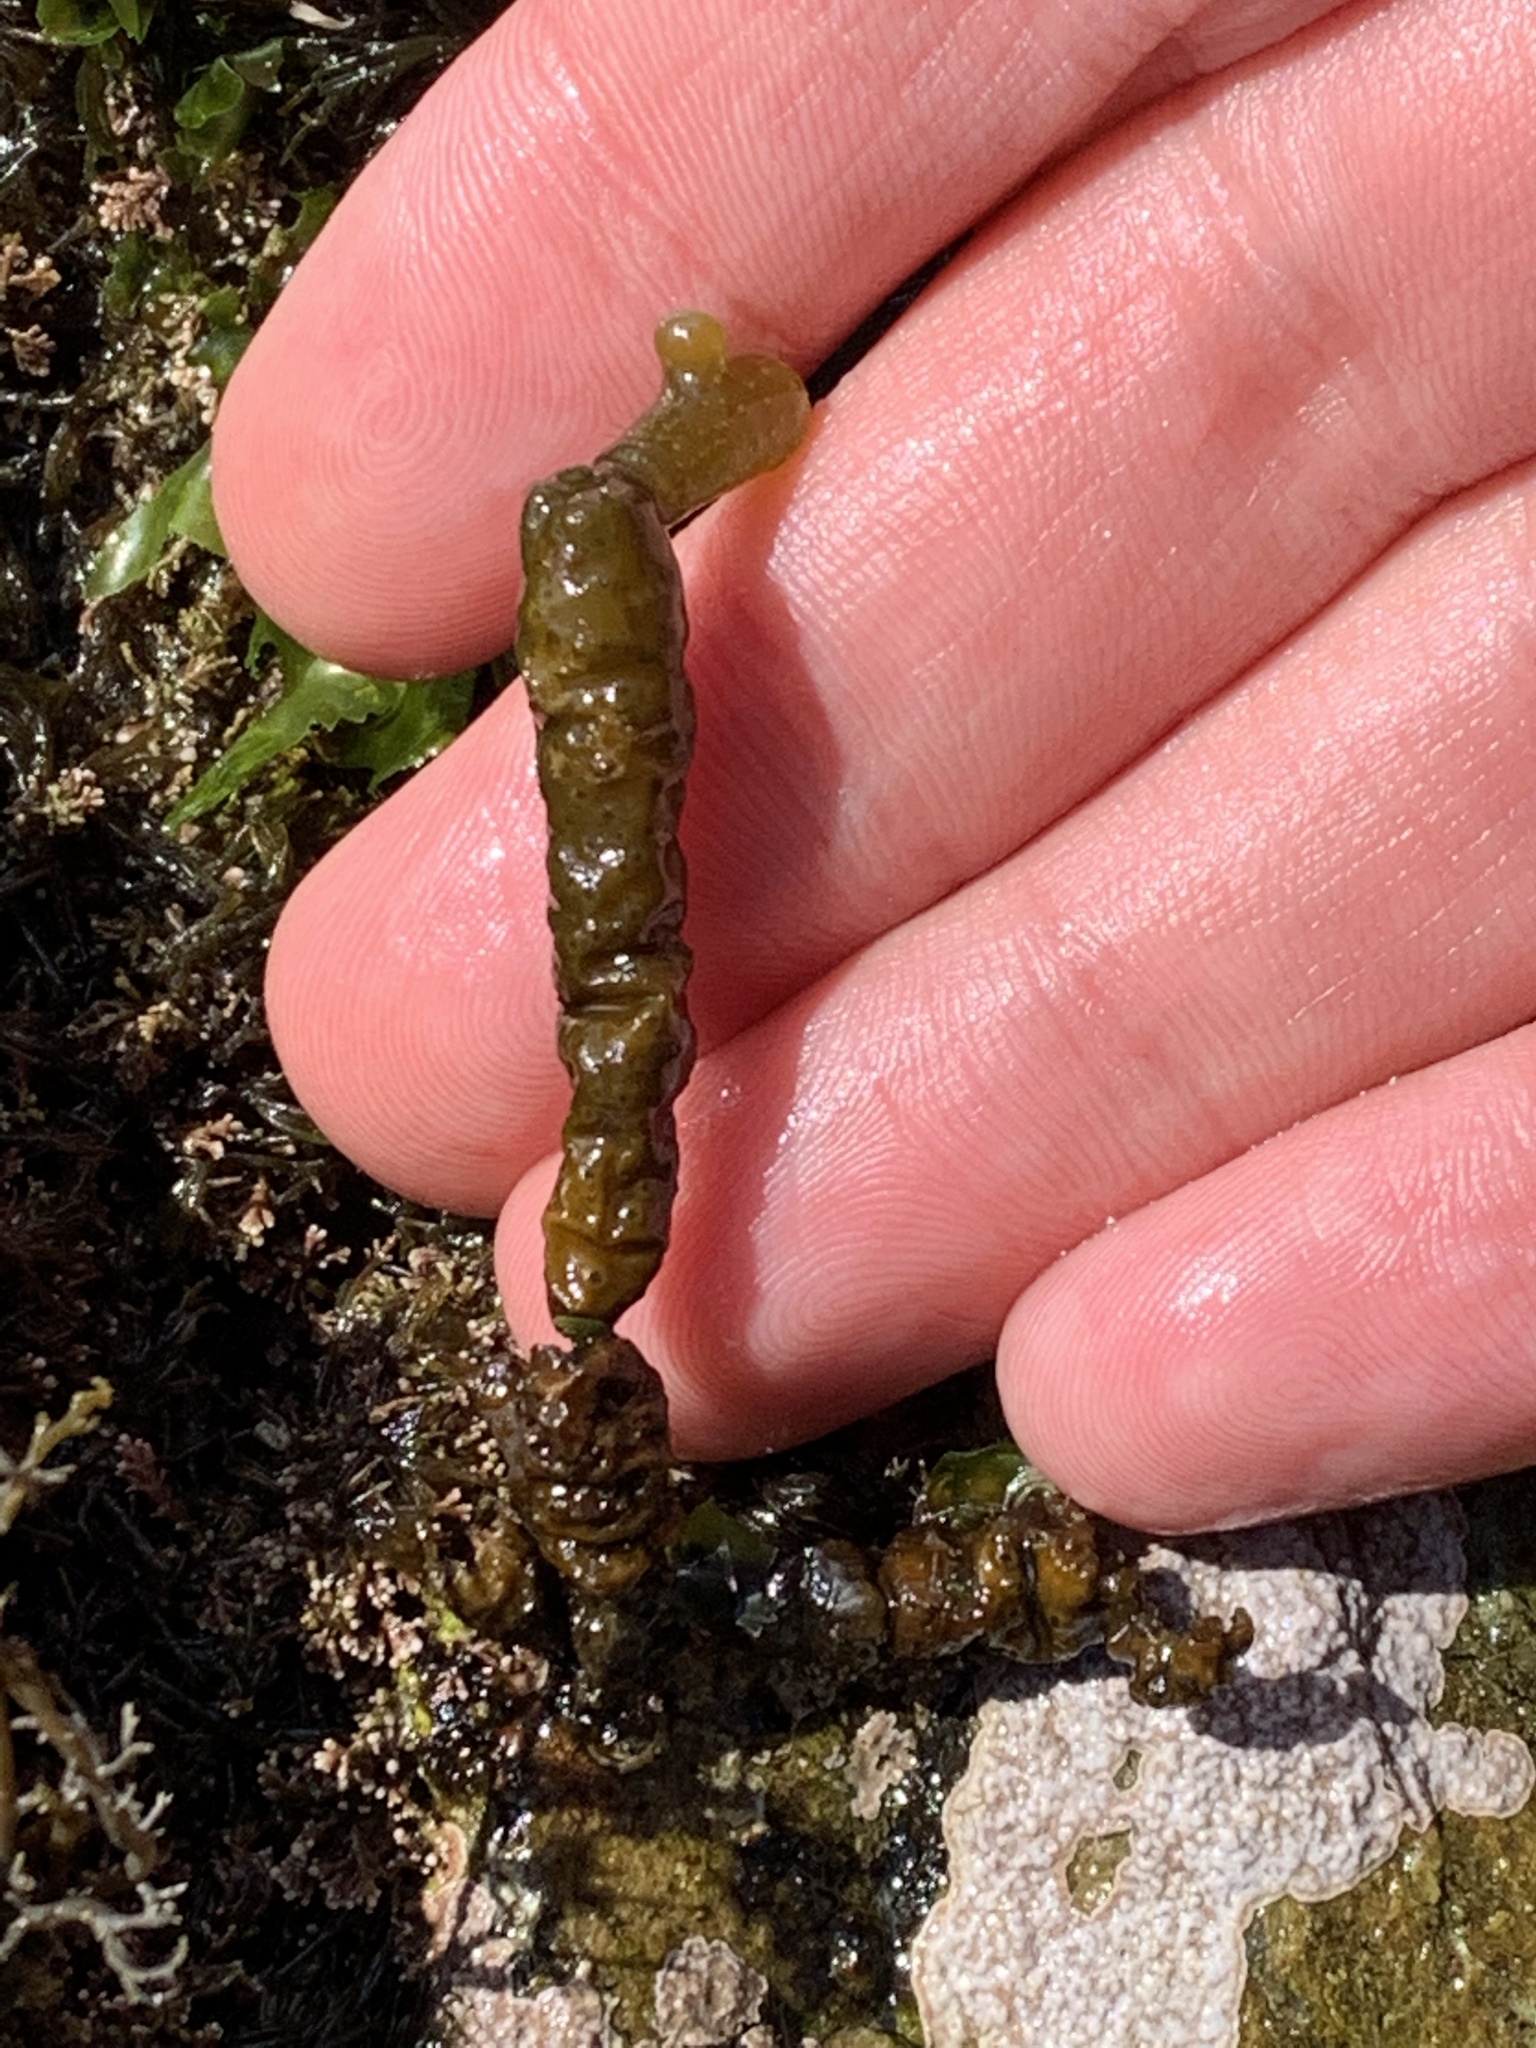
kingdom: Chromista
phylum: Ochrophyta
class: Phaeophyceae
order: Scytothamnales
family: Splachnidiaceae
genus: Splachnidium
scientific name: Splachnidium rugosum
